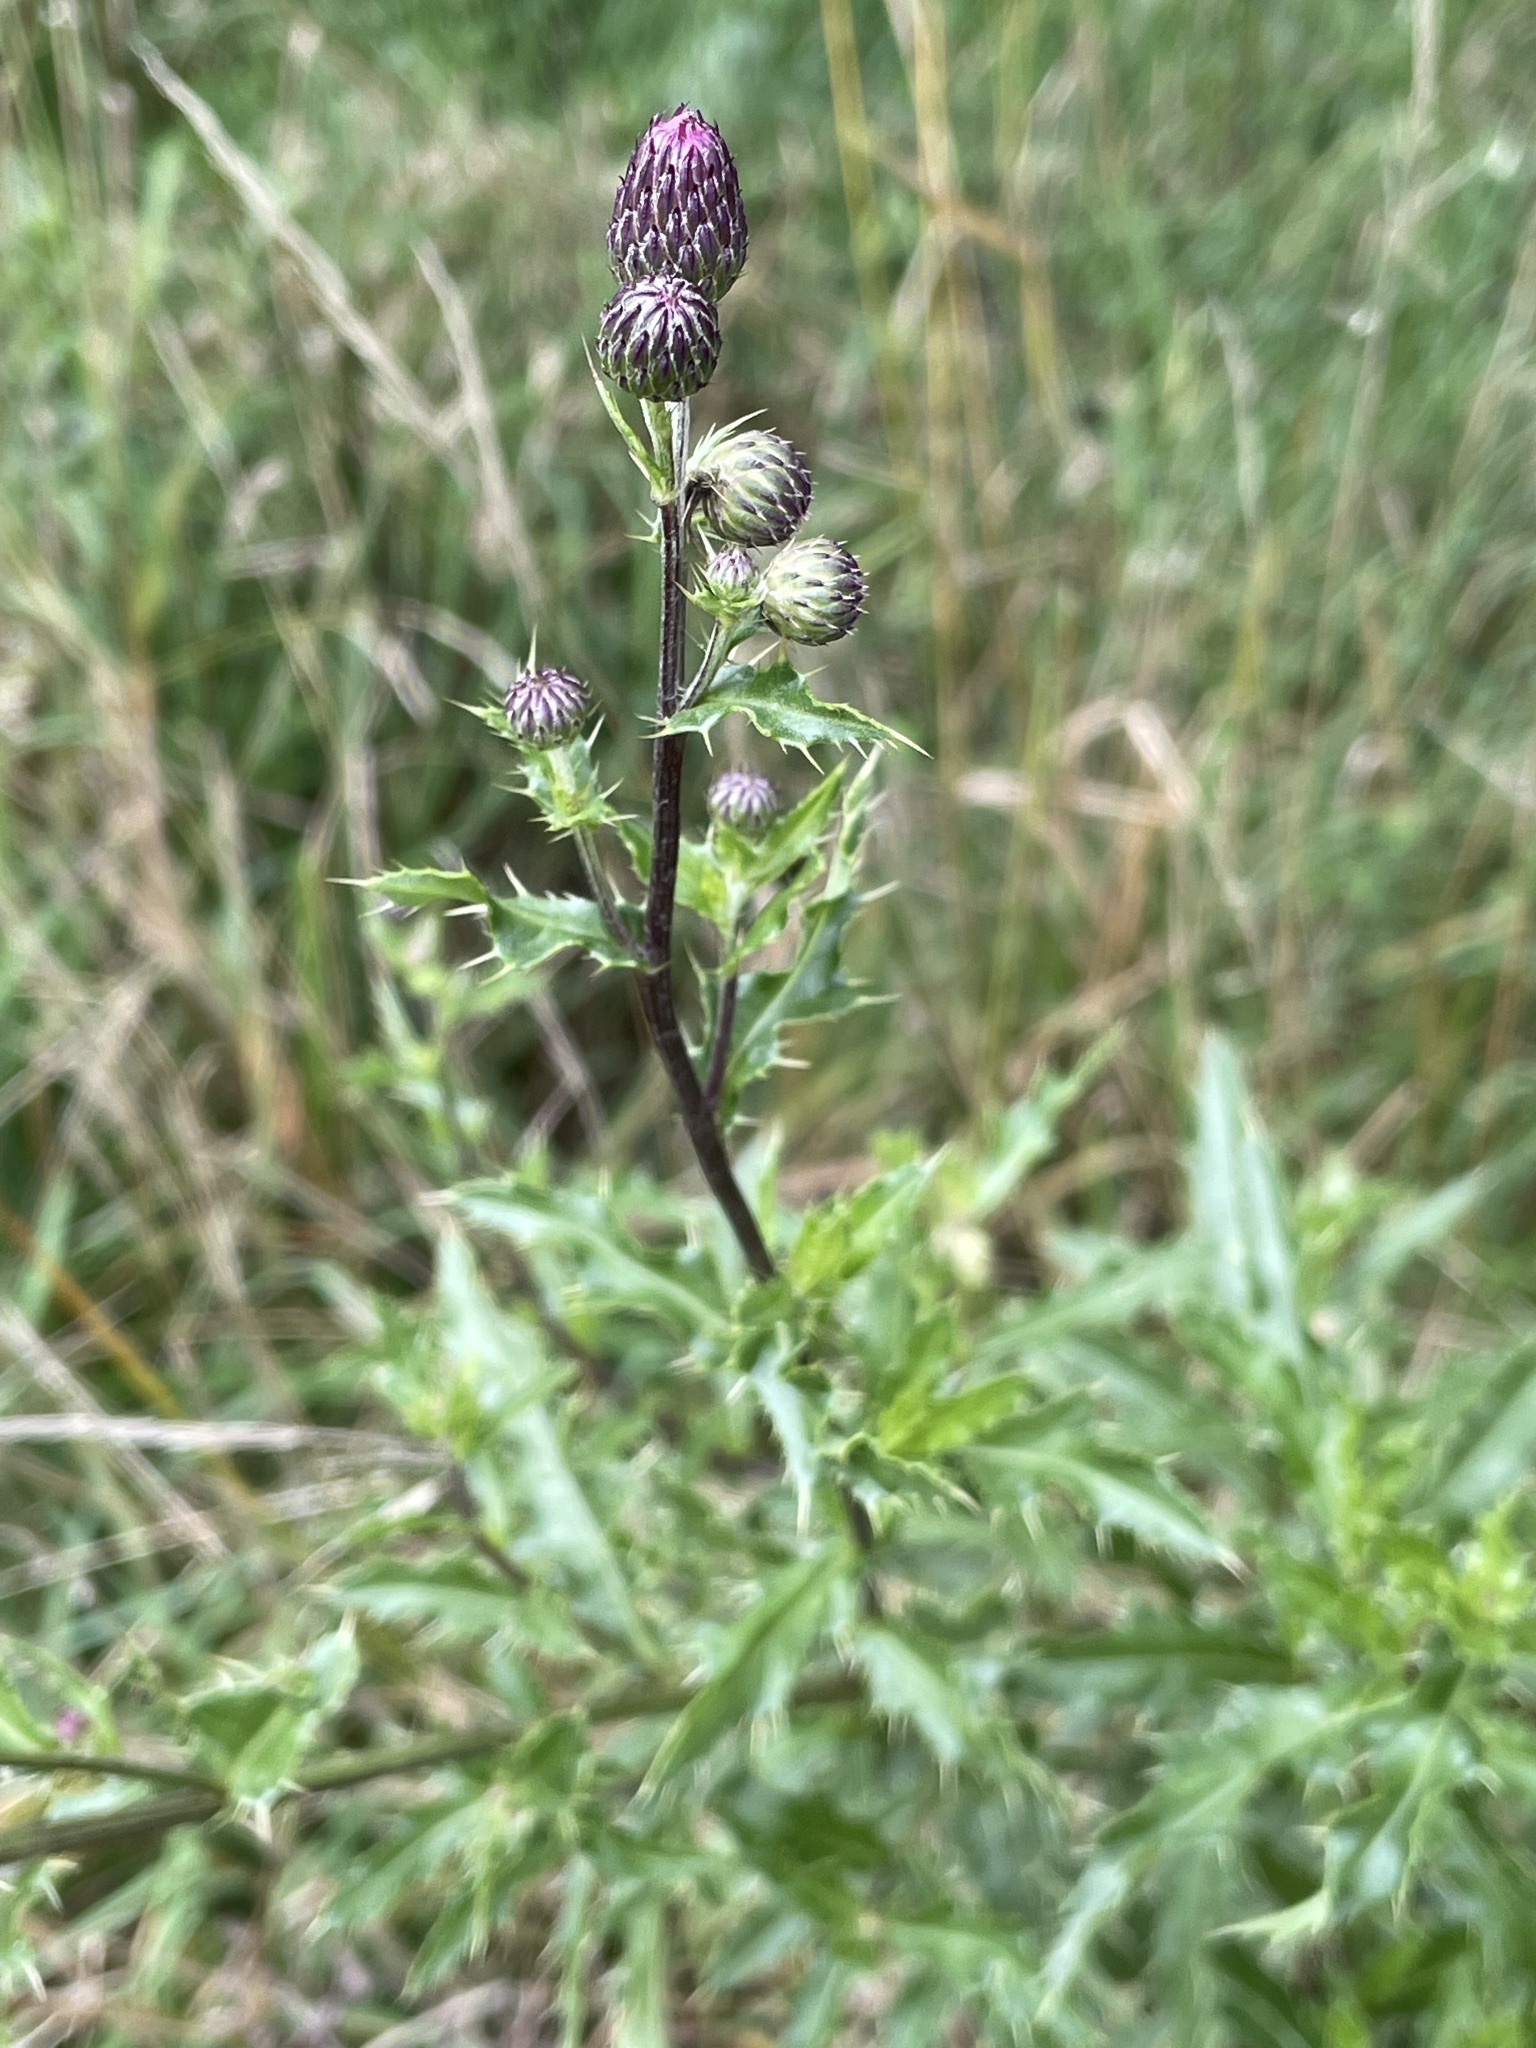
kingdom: Plantae
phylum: Tracheophyta
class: Magnoliopsida
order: Asterales
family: Asteraceae
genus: Cirsium
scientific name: Cirsium arvense
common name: Creeping thistle
